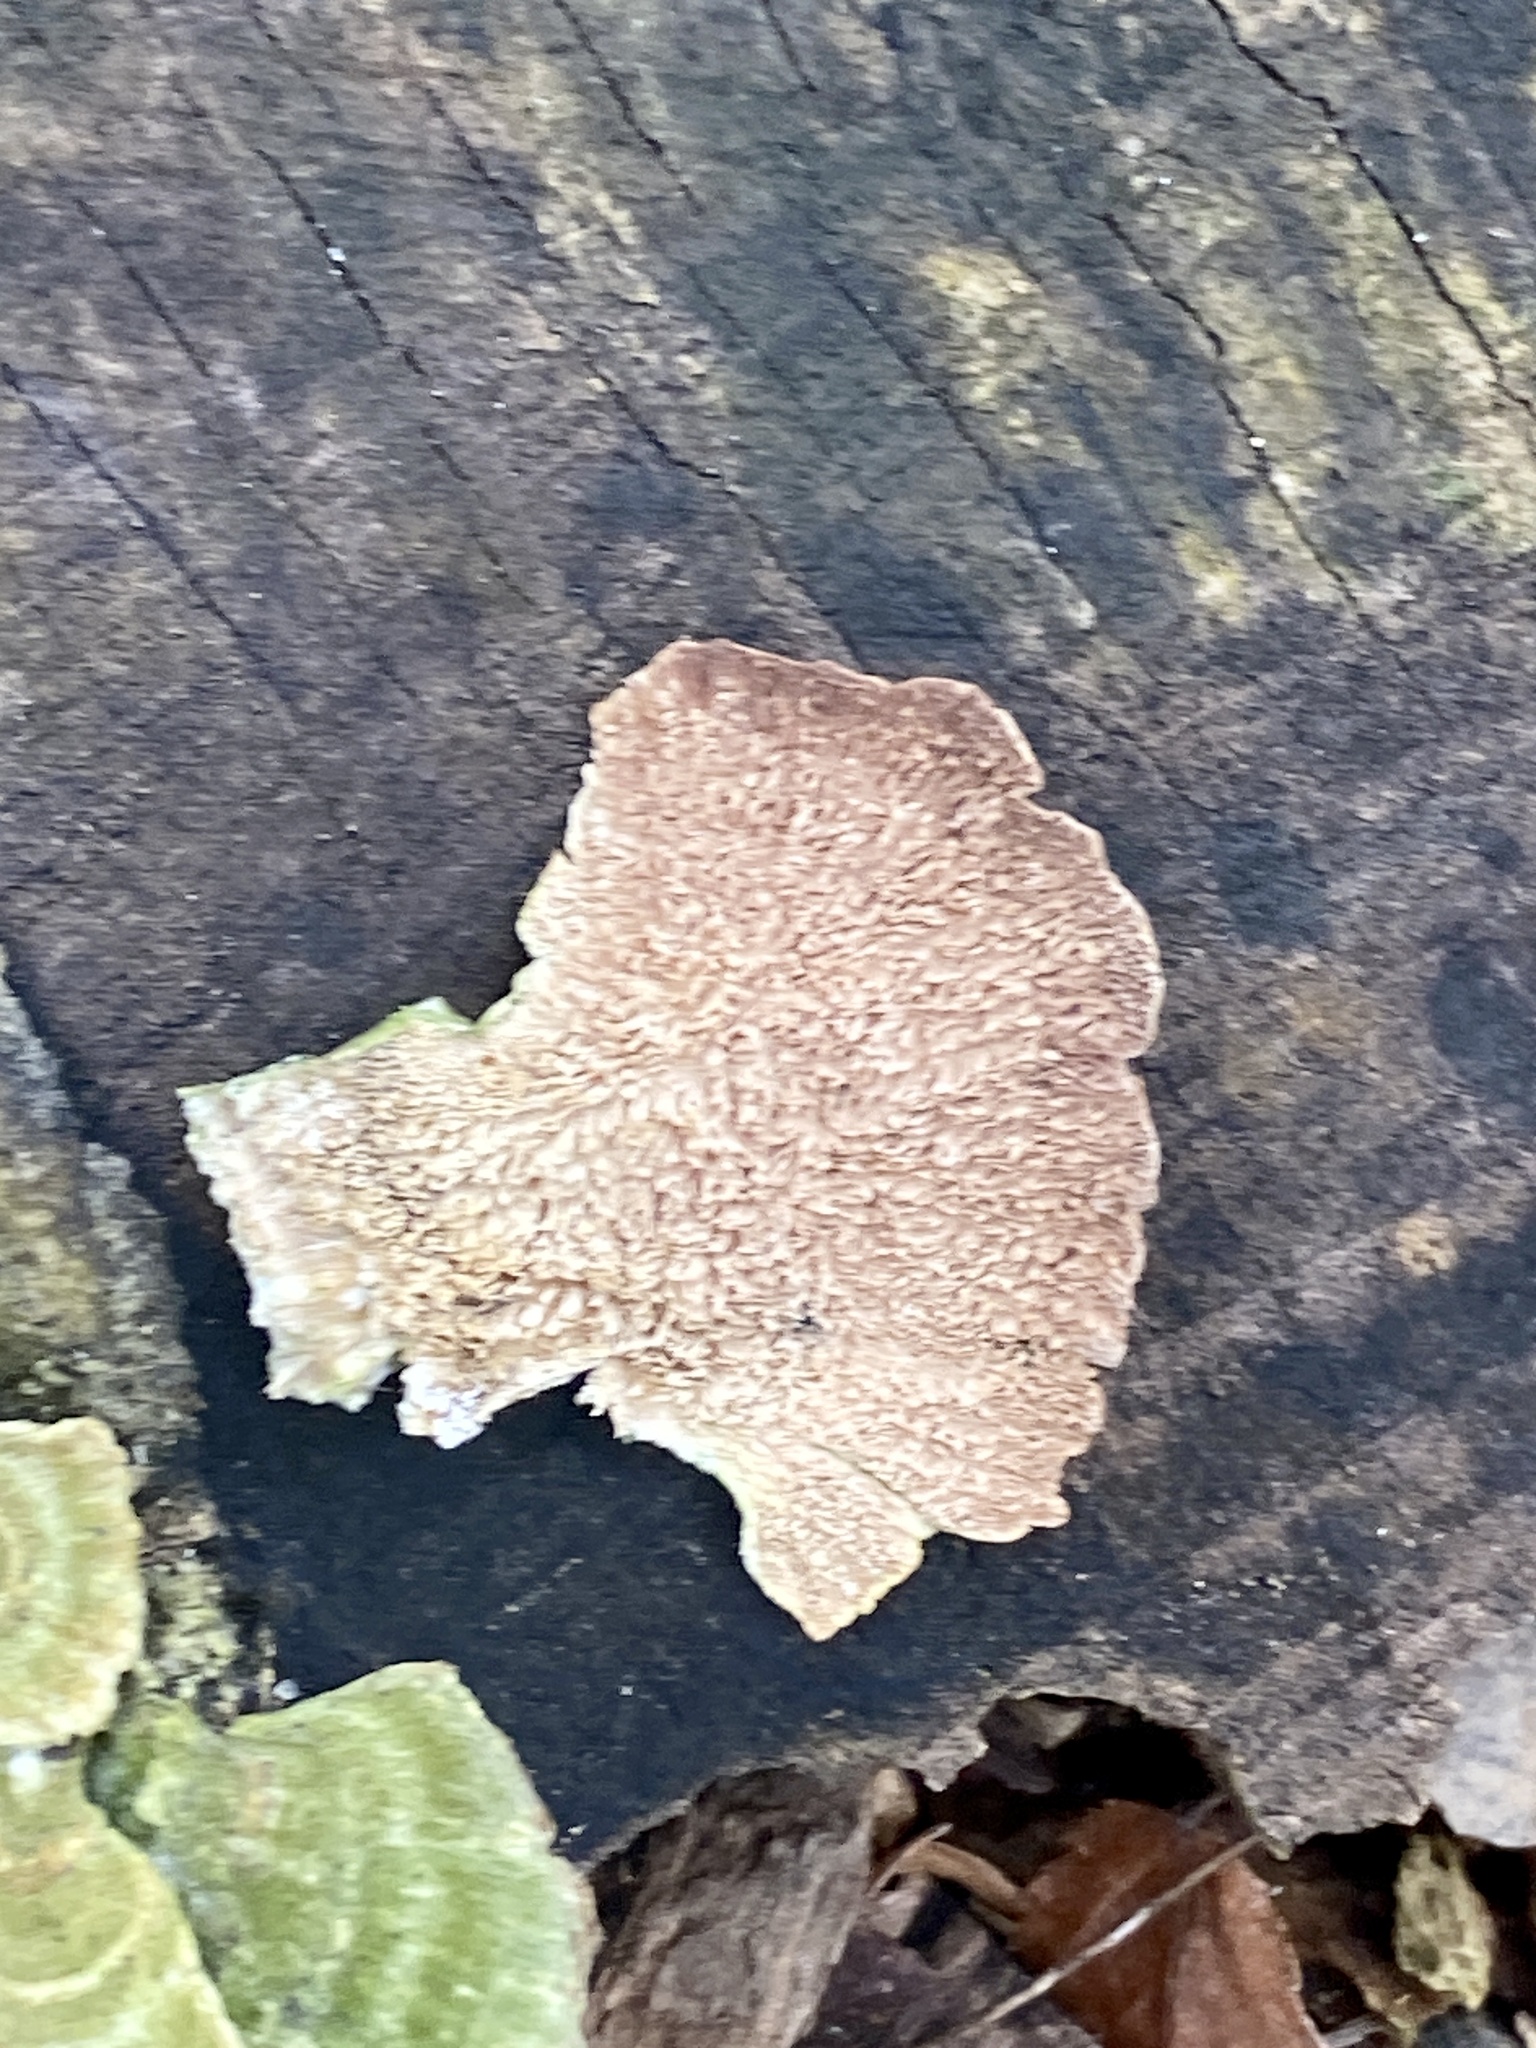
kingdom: Fungi
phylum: Basidiomycota
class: Agaricomycetes
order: Hymenochaetales
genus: Trichaptum
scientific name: Trichaptum biforme
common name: Violet-toothed polypore
